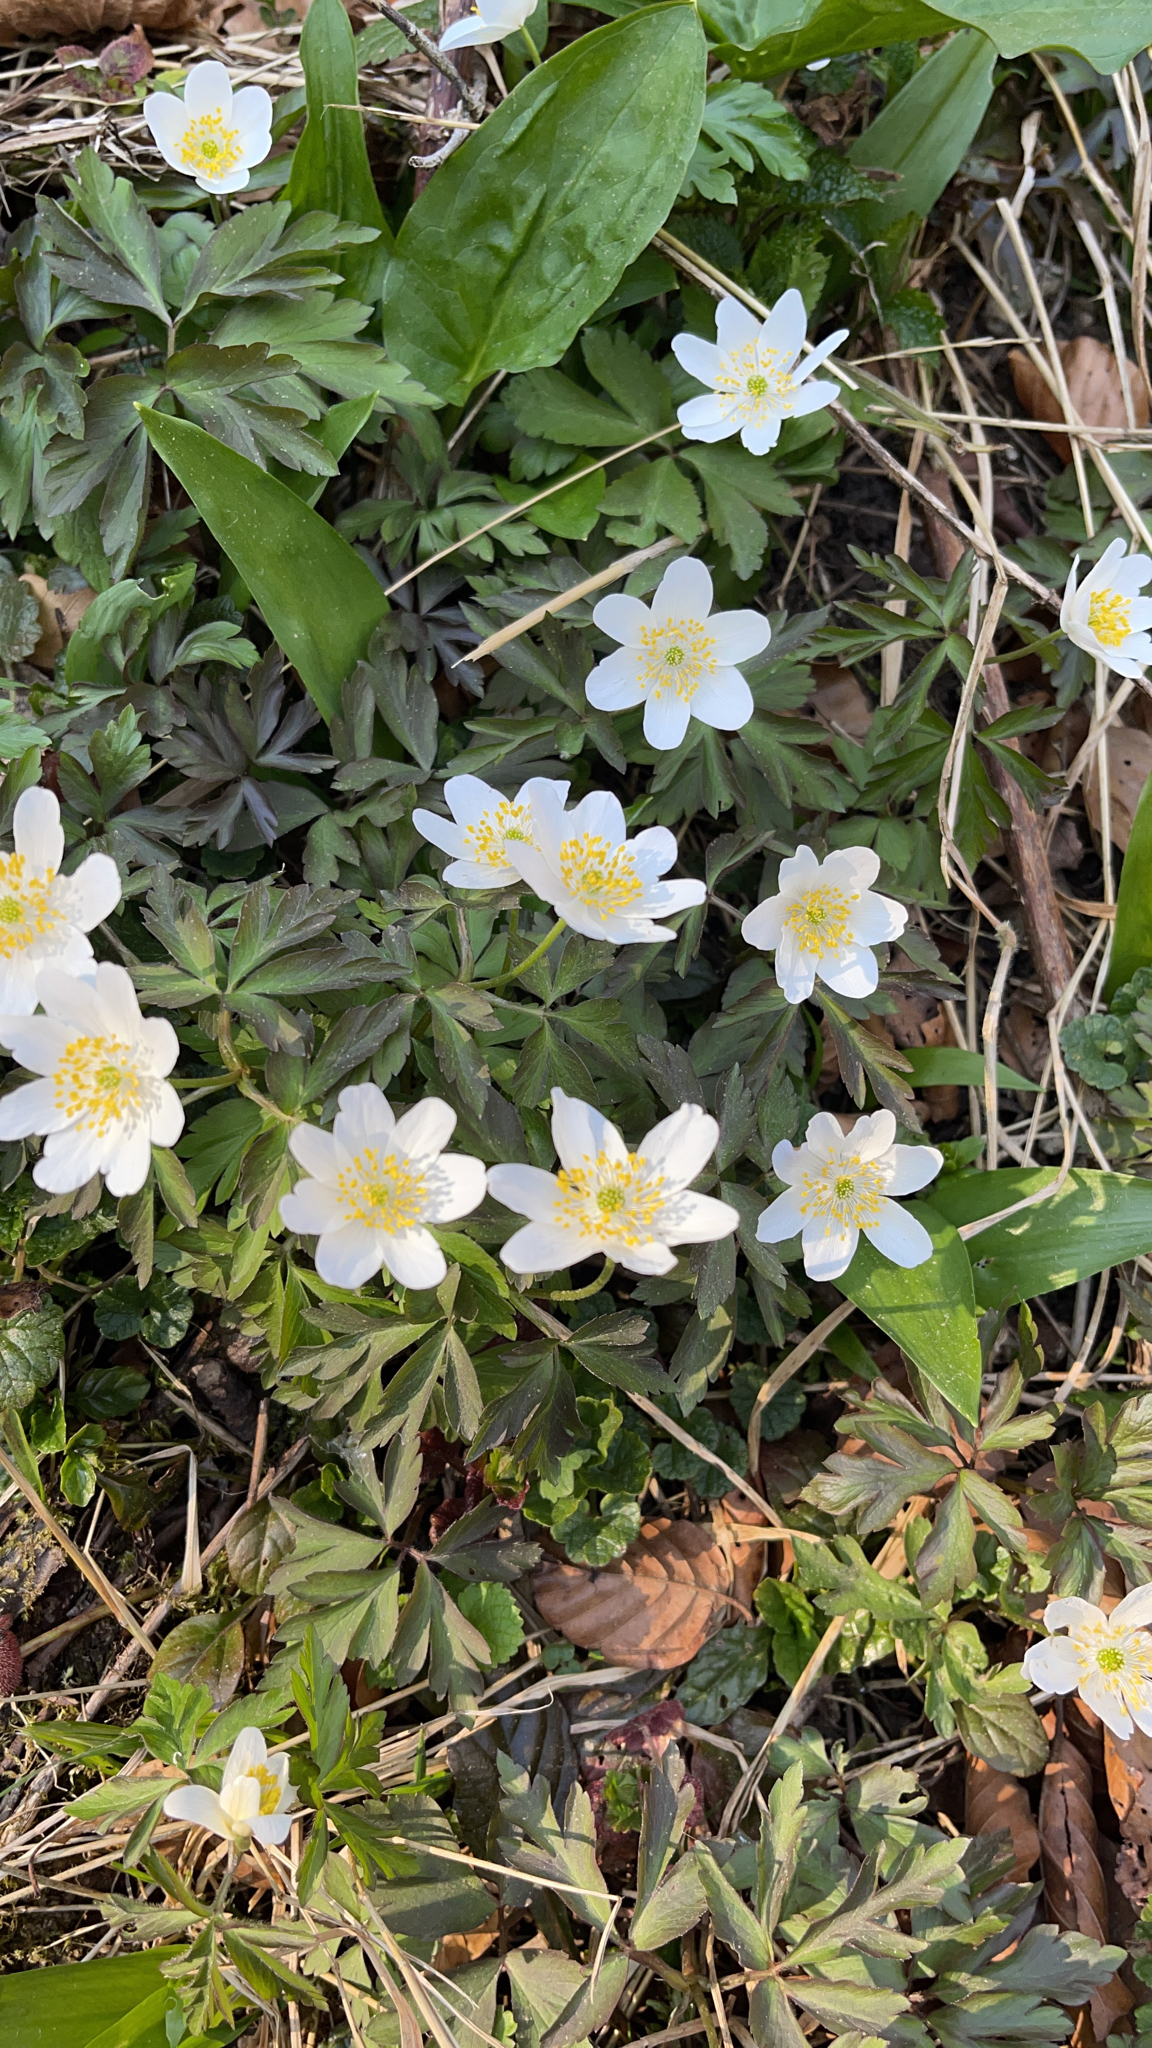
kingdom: Plantae
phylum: Tracheophyta
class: Magnoliopsida
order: Ranunculales
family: Ranunculaceae
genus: Anemone
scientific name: Anemone nemorosa
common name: Wood anemone
